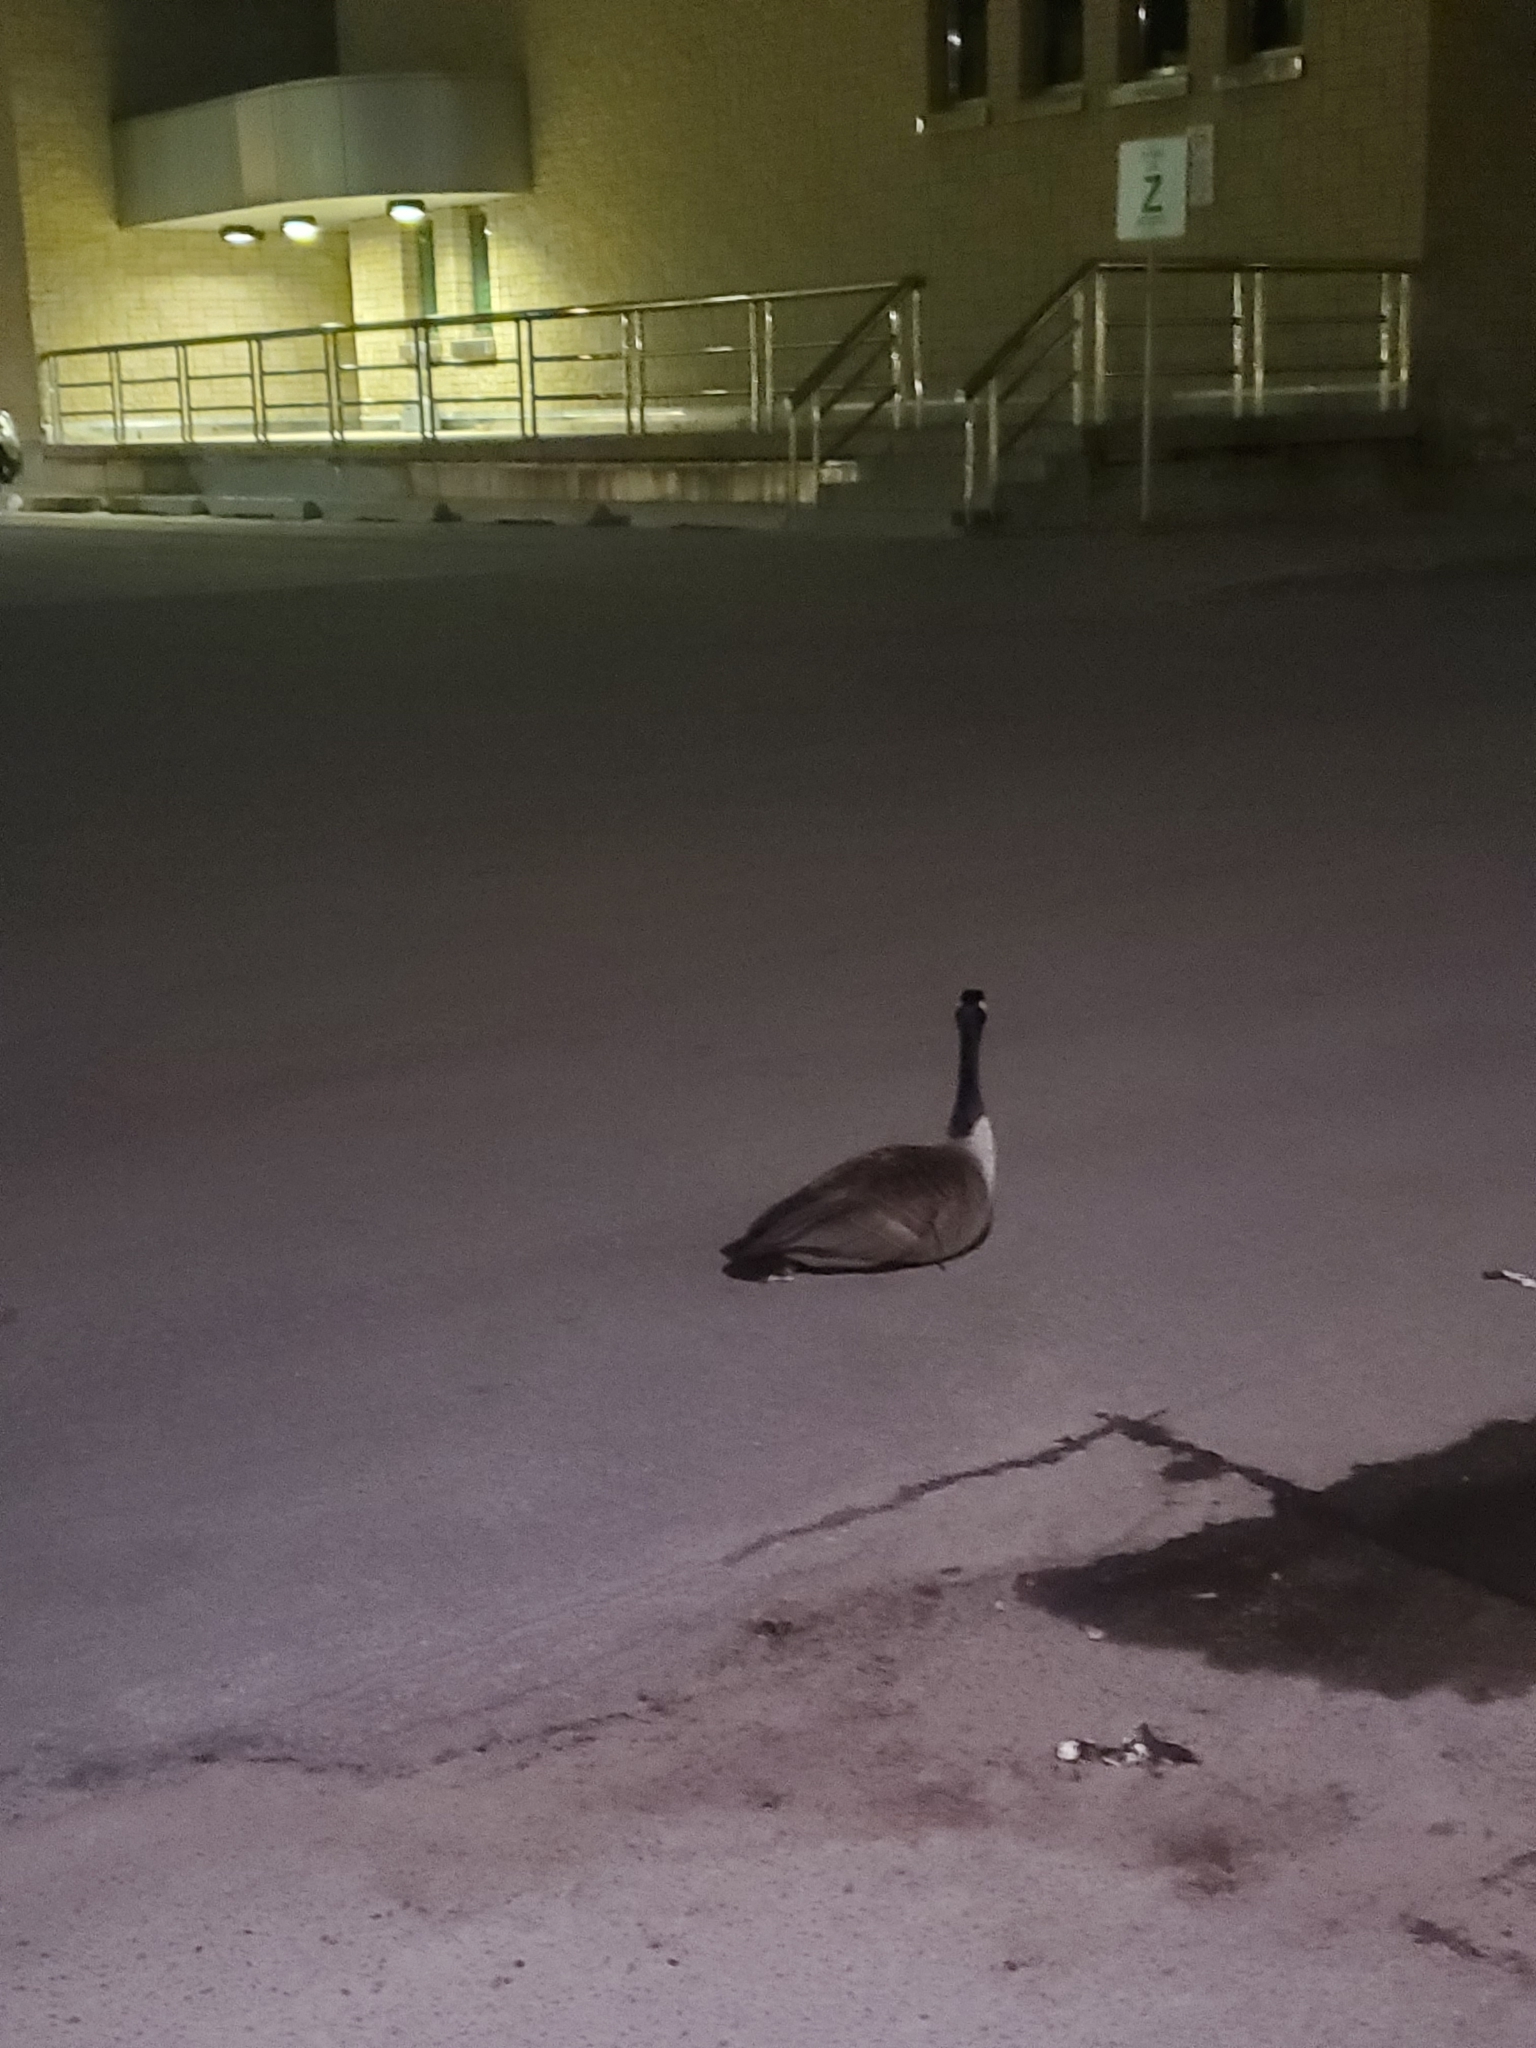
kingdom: Animalia
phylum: Chordata
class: Aves
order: Anseriformes
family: Anatidae
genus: Branta
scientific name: Branta canadensis
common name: Canada goose
